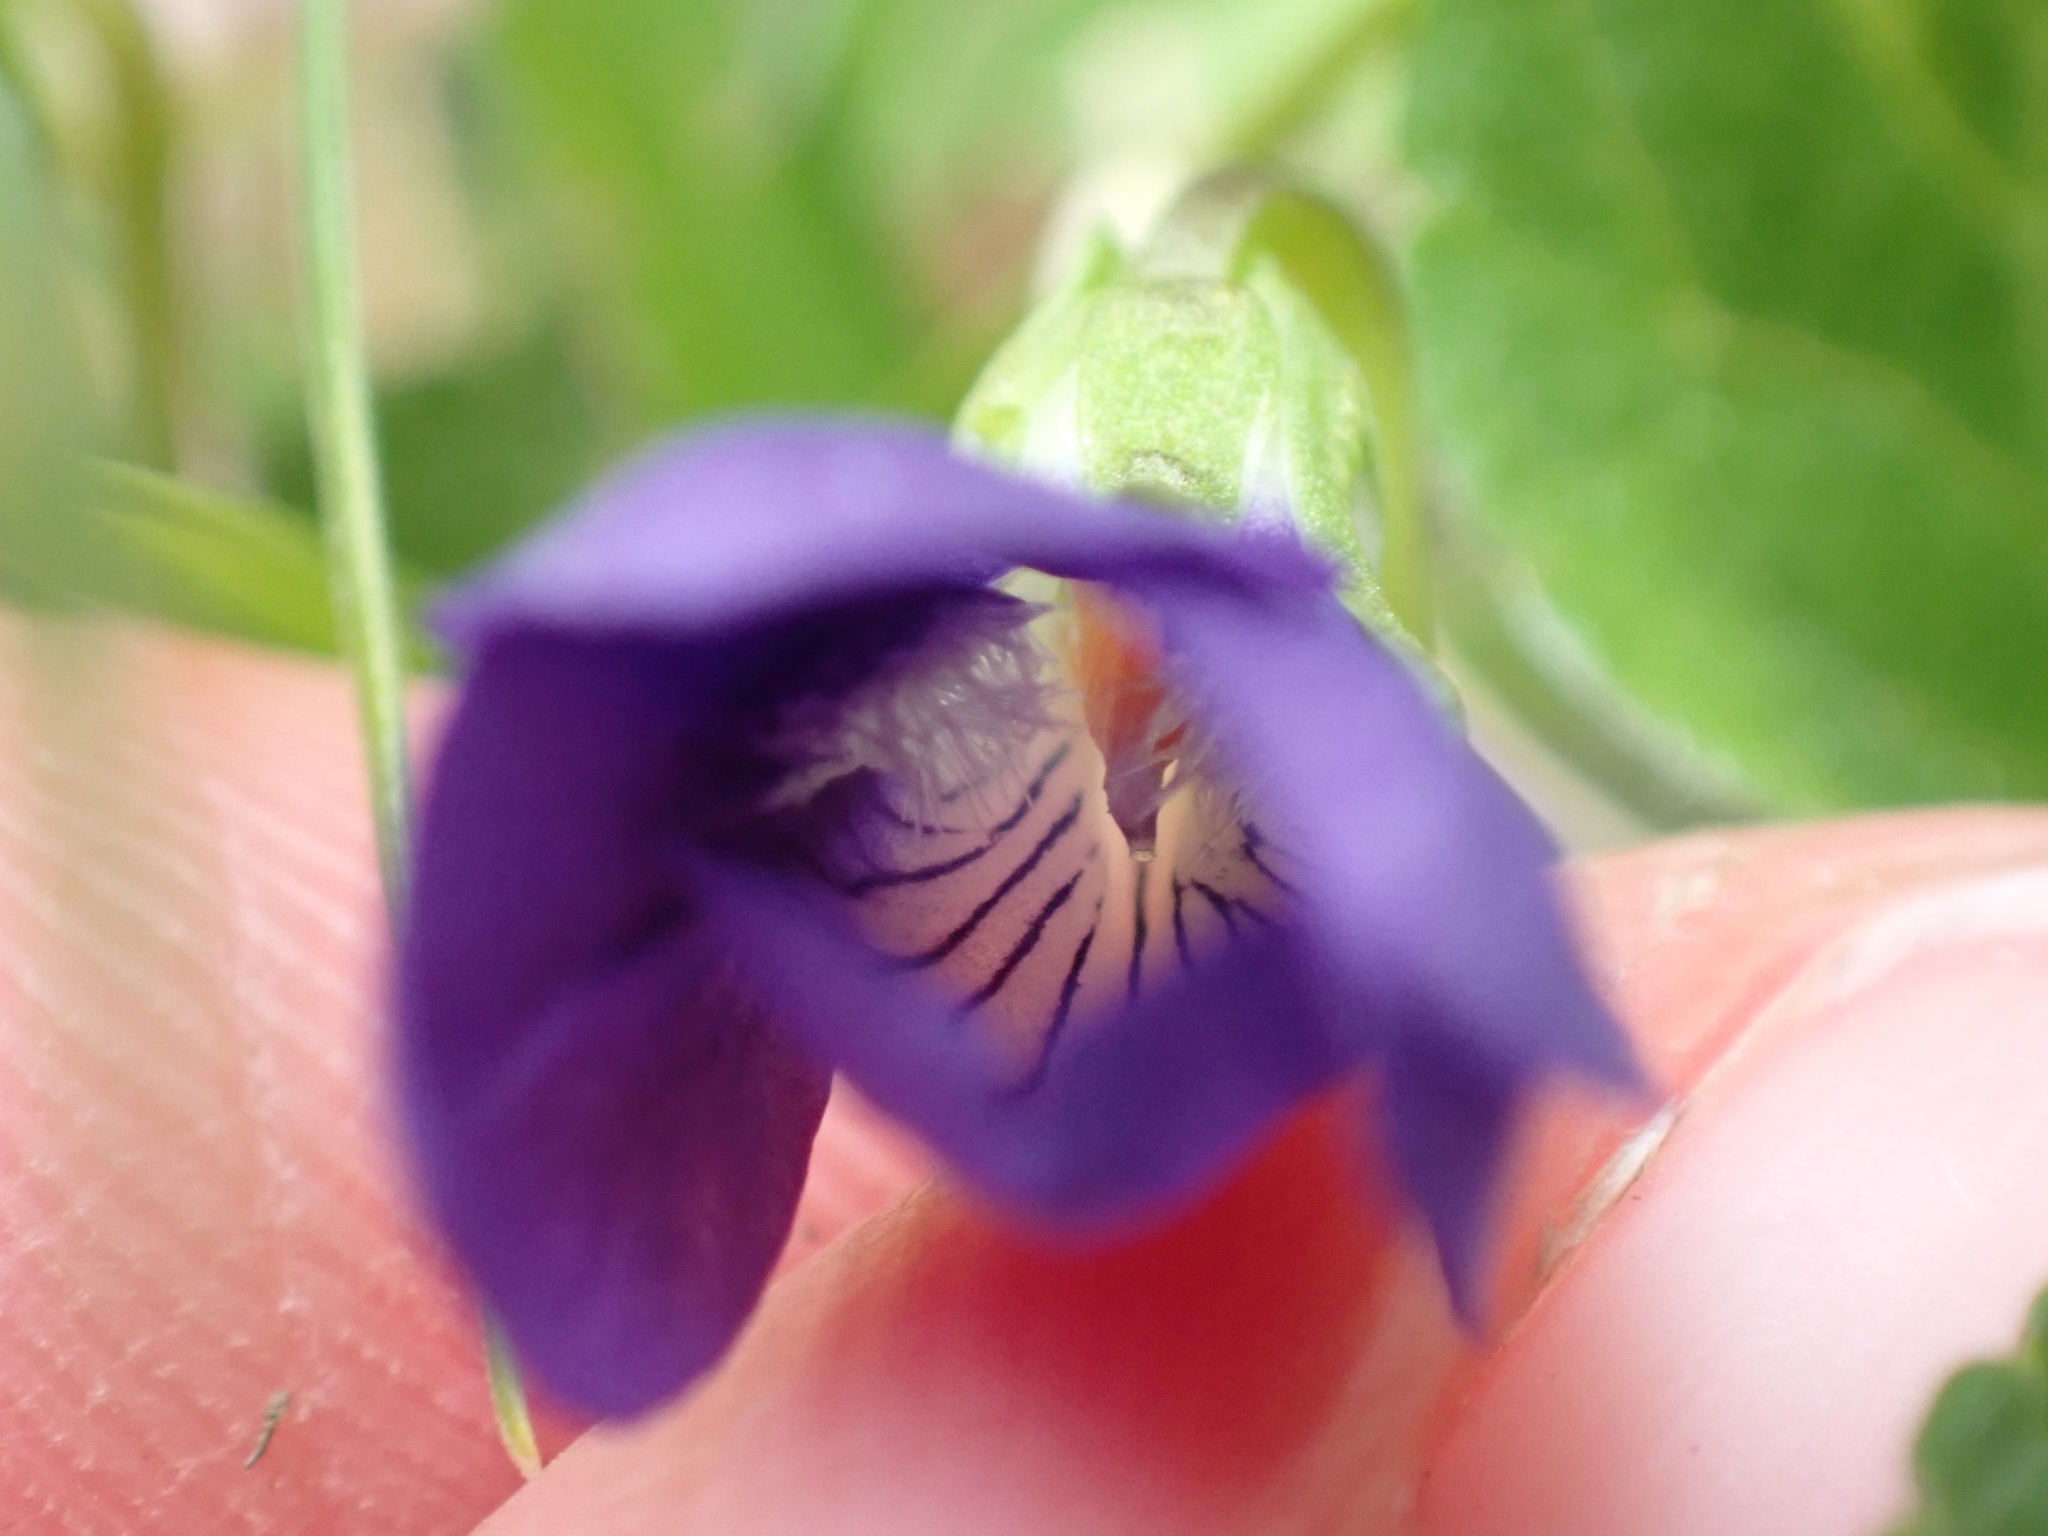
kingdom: Plantae
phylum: Tracheophyta
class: Magnoliopsida
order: Malpighiales
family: Violaceae
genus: Viola
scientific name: Viola adunca
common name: Sand violet
